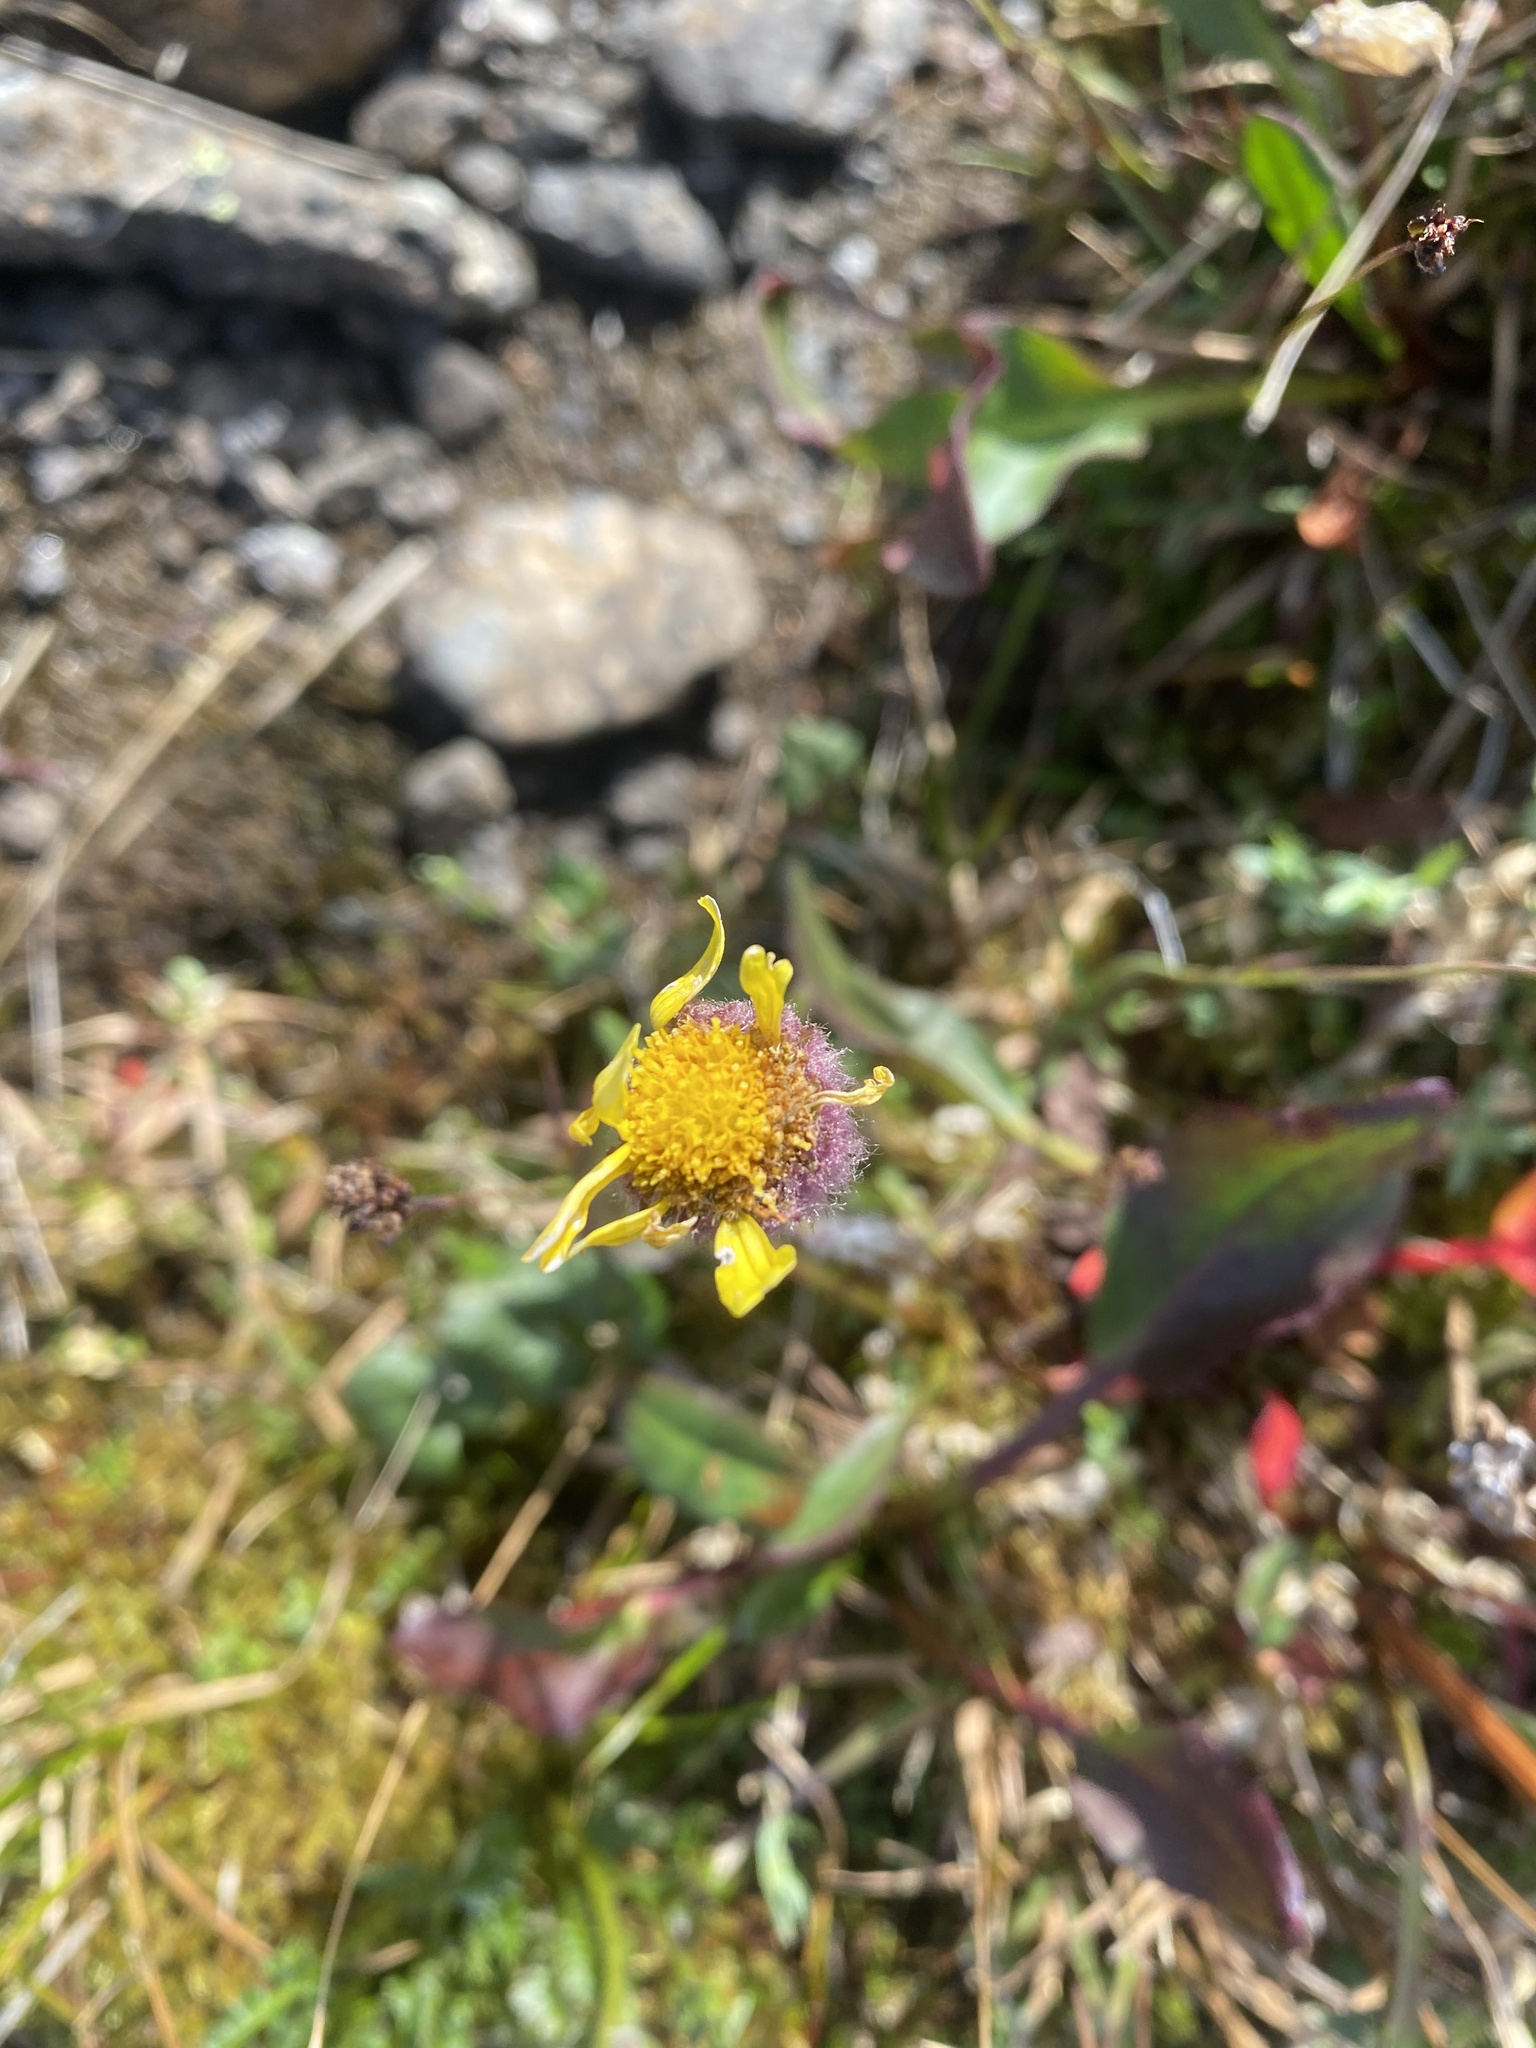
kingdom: Plantae
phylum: Tracheophyta
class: Magnoliopsida
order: Asterales
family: Asteraceae
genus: Tephroseris
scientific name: Tephroseris integrifolia
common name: Field fleawort
